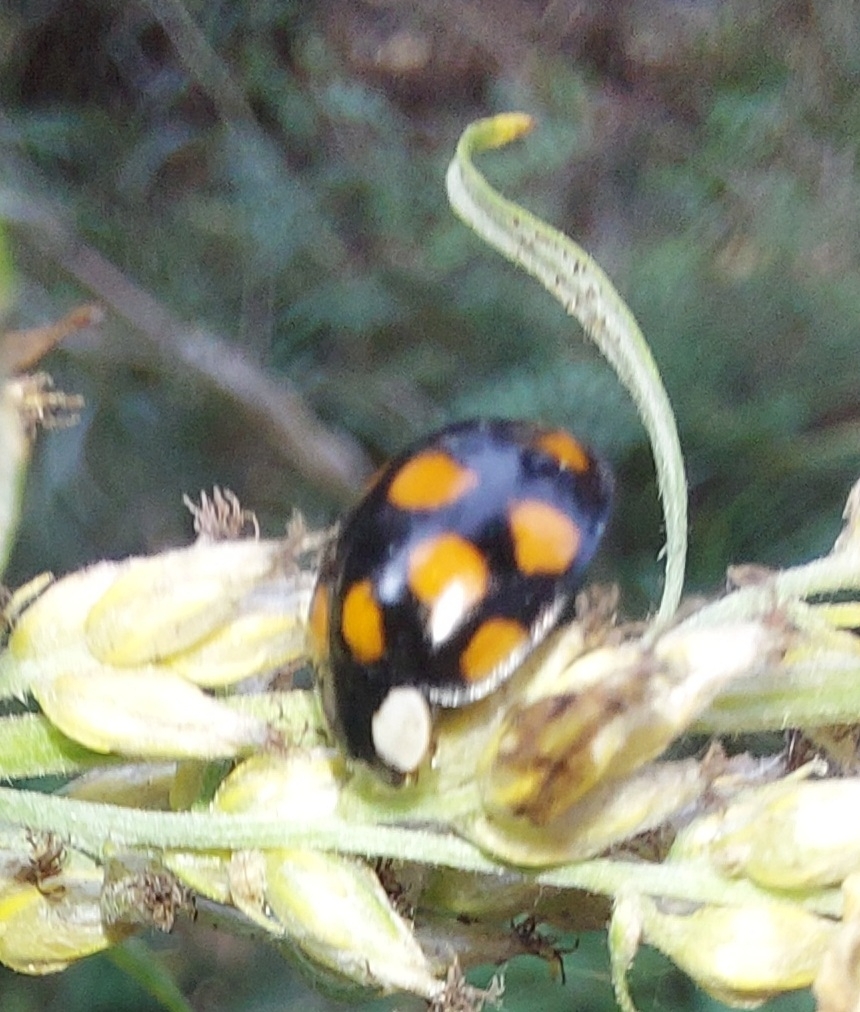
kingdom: Animalia
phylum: Arthropoda
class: Insecta
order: Coleoptera
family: Coccinellidae
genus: Harmonia
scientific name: Harmonia axyridis
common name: Harlequin ladybird
